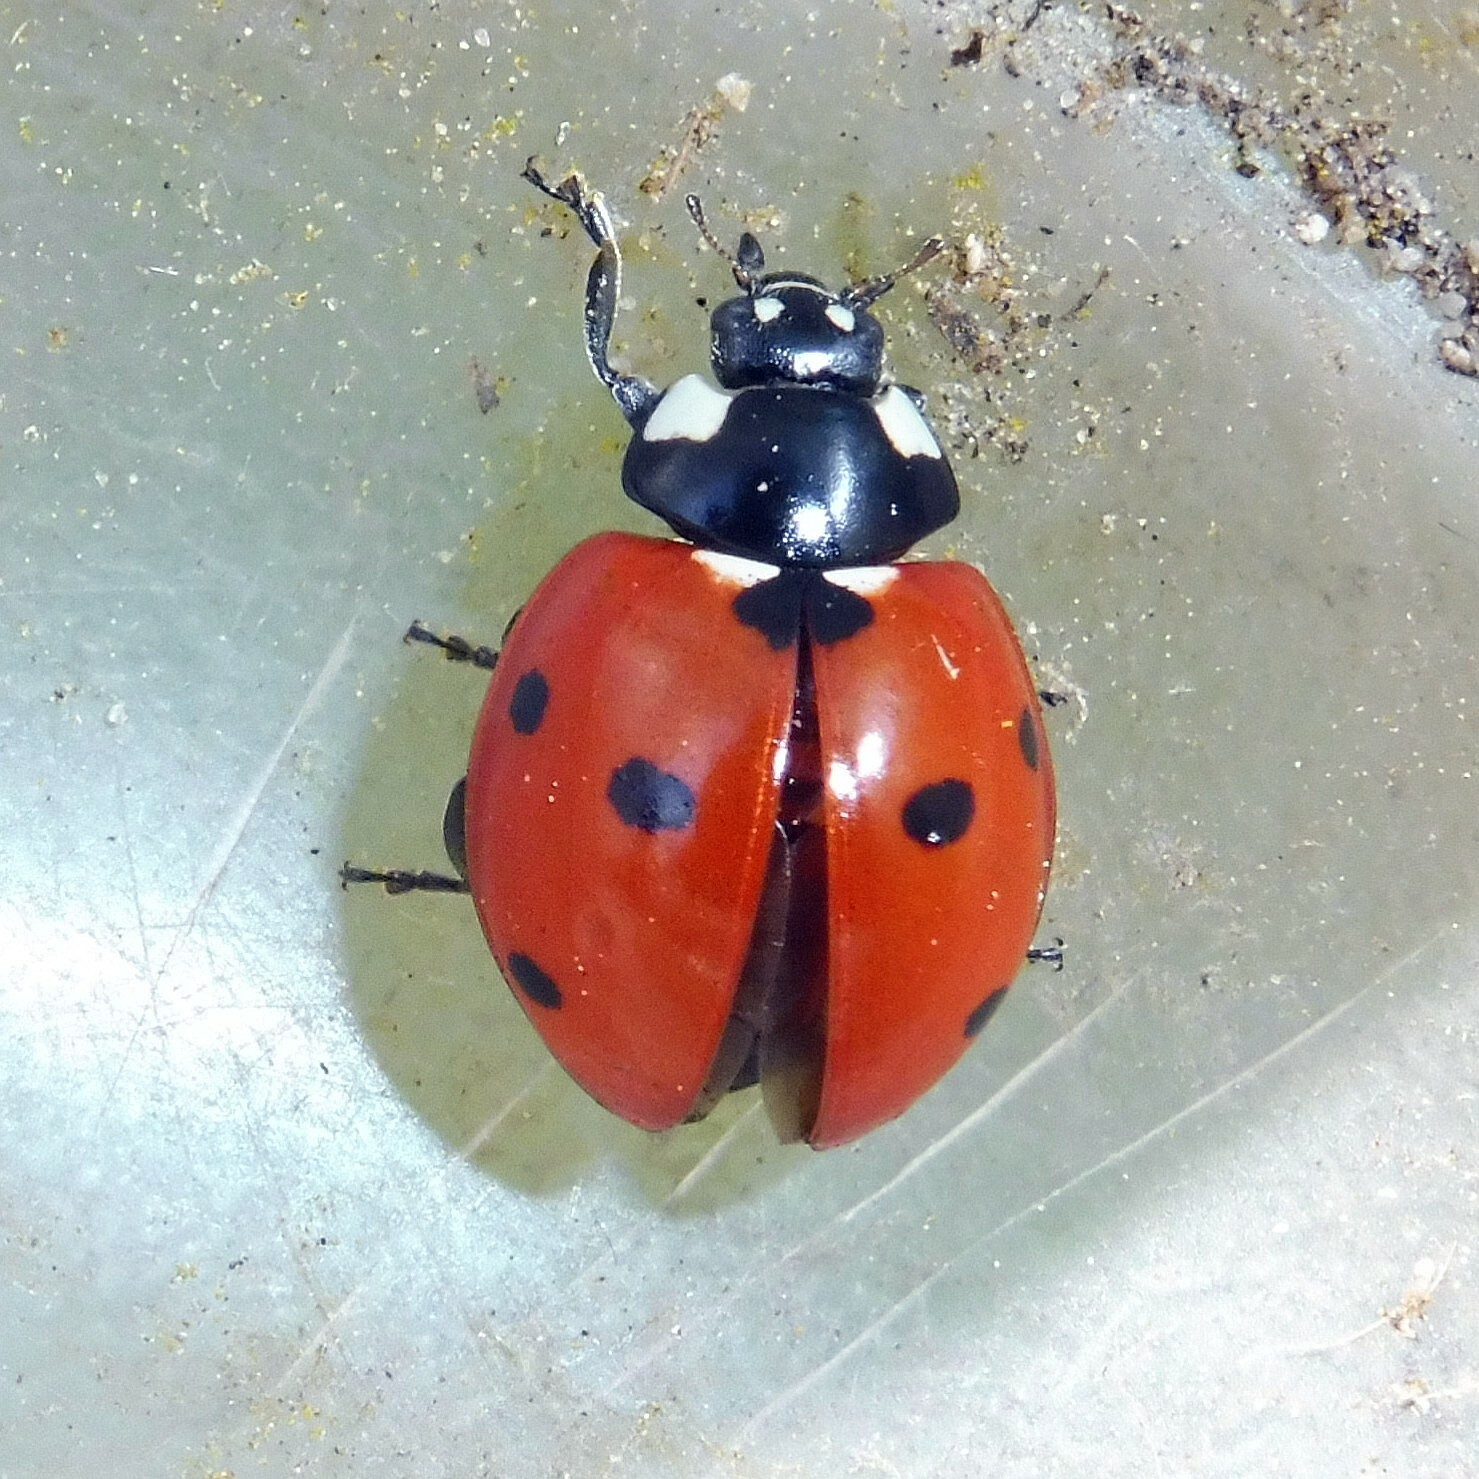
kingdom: Animalia
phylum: Arthropoda
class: Insecta
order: Coleoptera
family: Coccinellidae
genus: Coccinella
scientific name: Coccinella septempunctata
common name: Sevenspotted lady beetle
